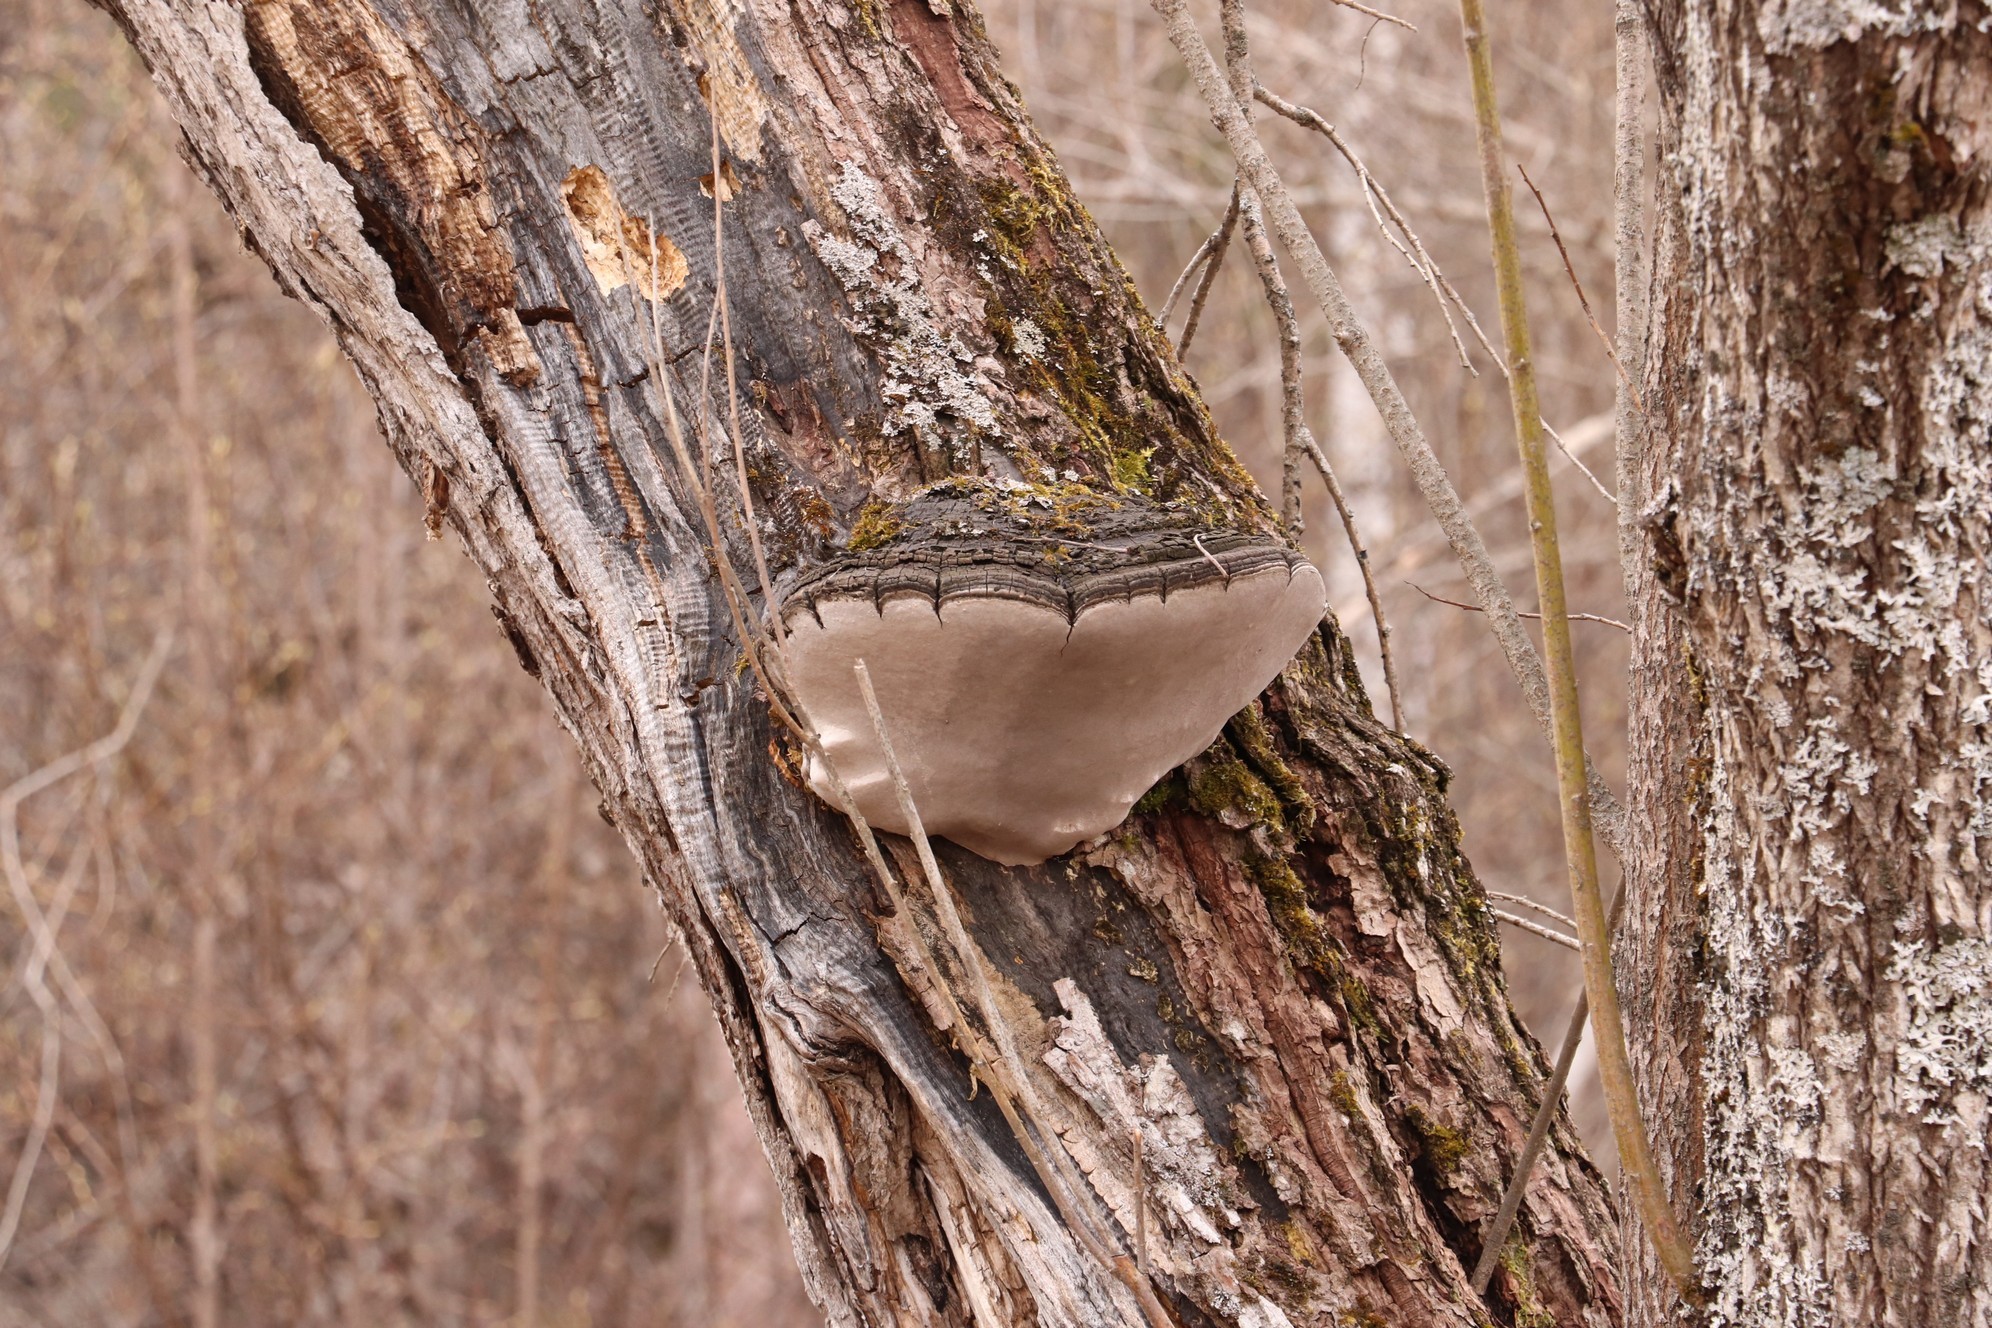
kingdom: Fungi
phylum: Basidiomycota
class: Agaricomycetes
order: Hymenochaetales
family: Hymenochaetaceae
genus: Phellinus
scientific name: Phellinus igniarius
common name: Willow bracket
